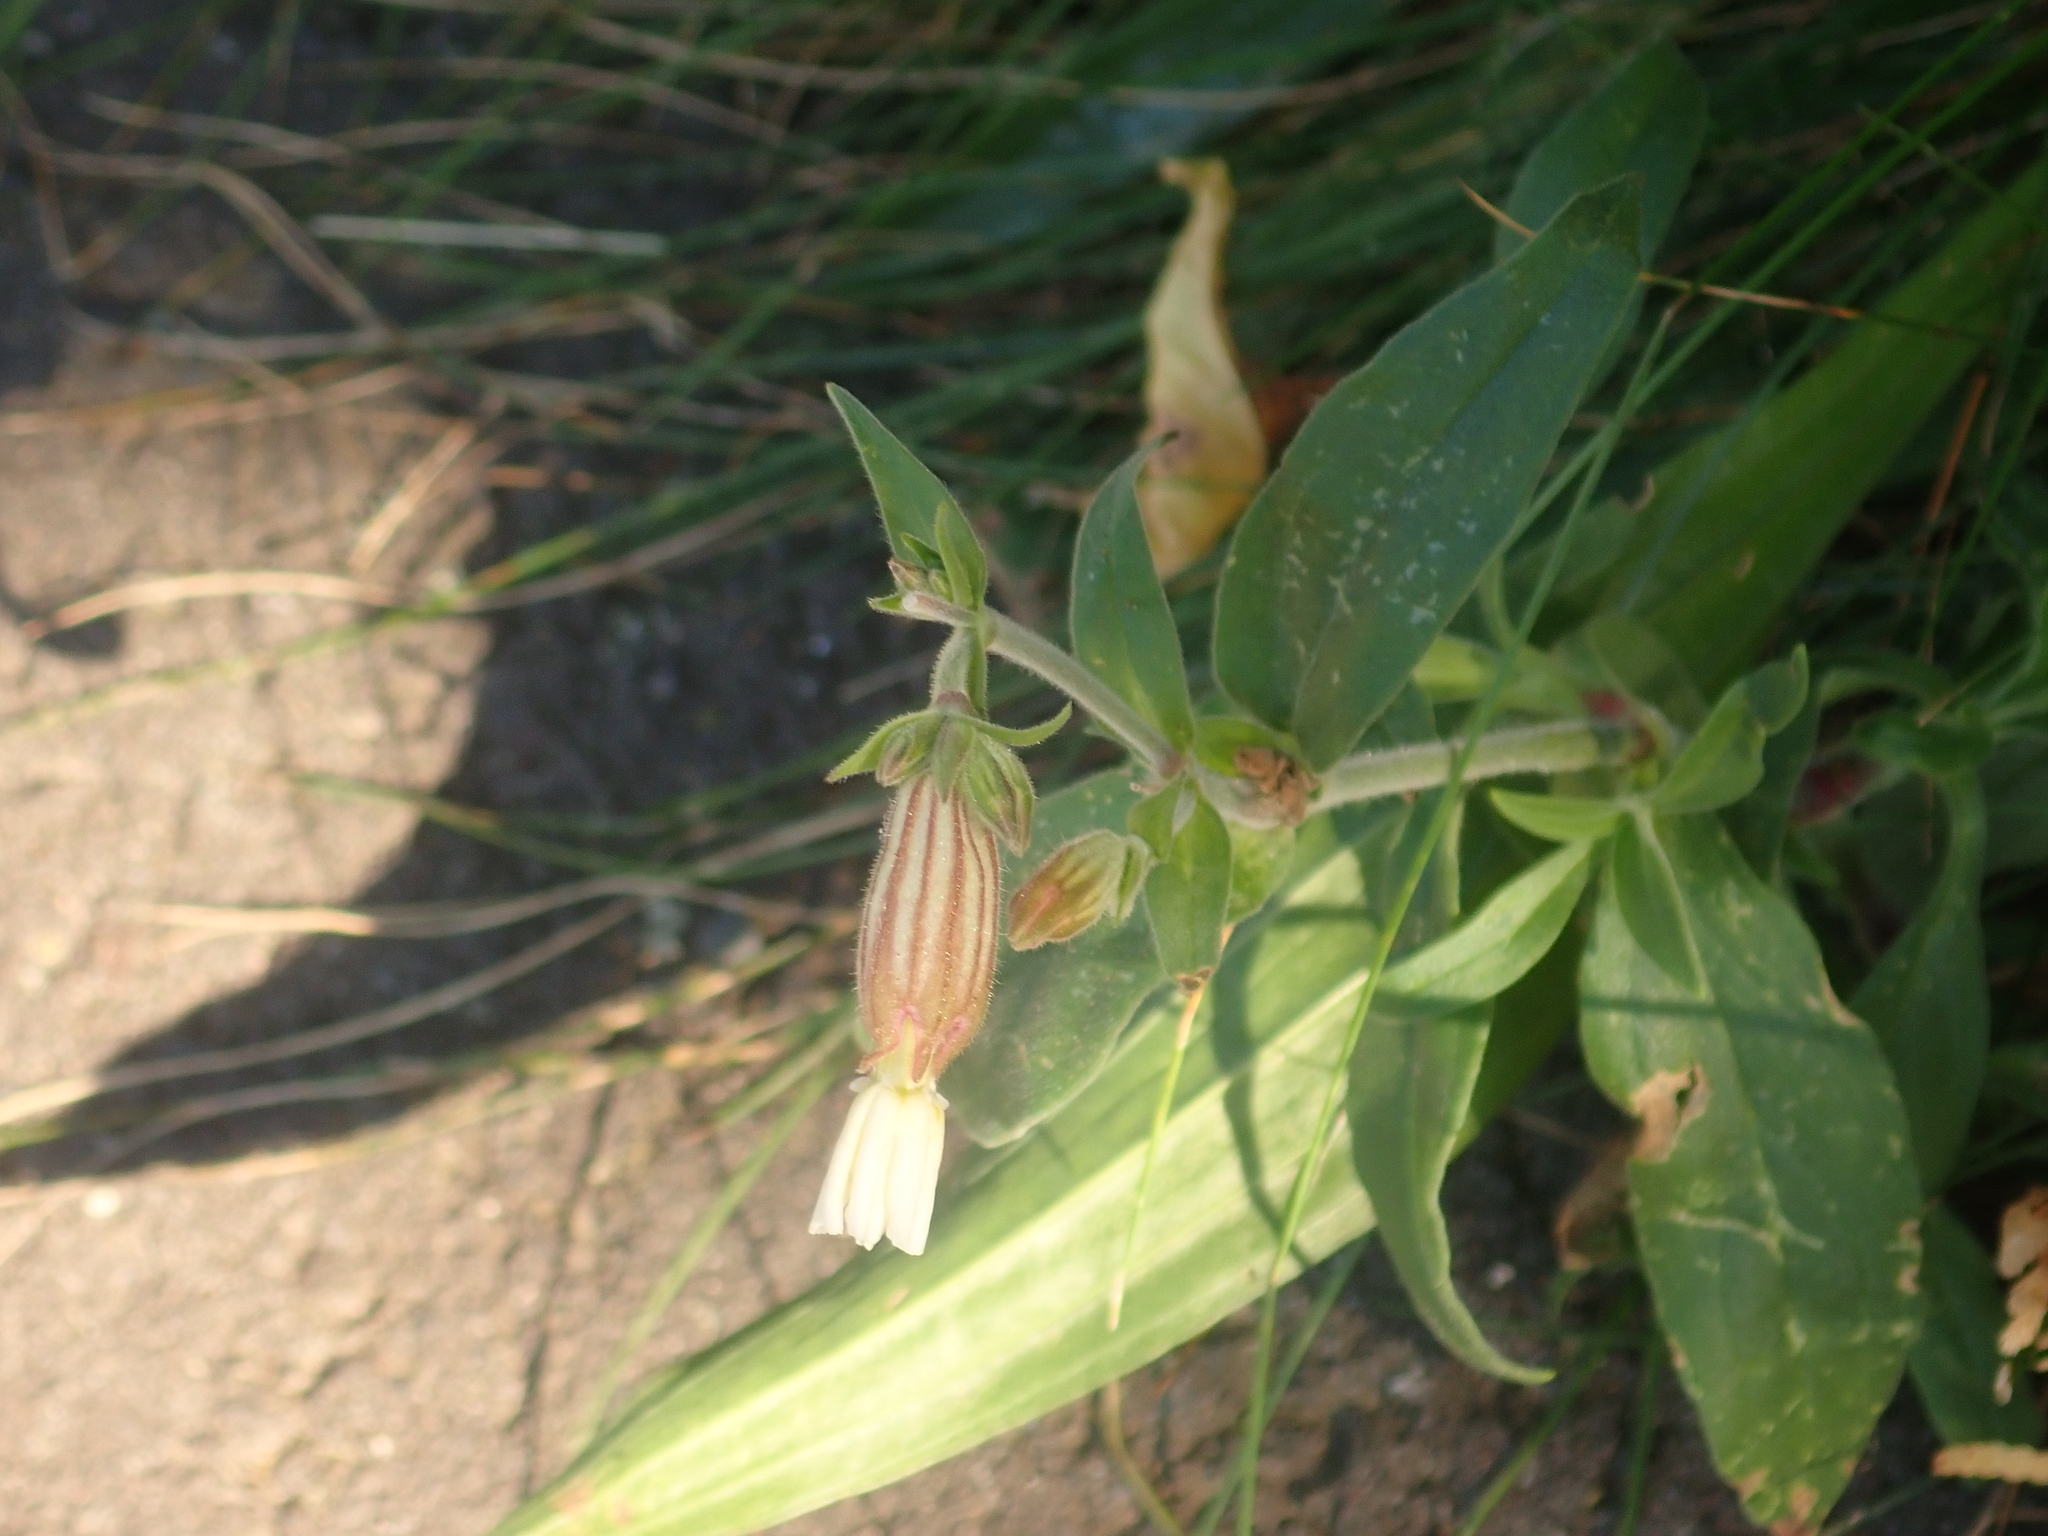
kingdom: Plantae
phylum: Tracheophyta
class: Magnoliopsida
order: Caryophyllales
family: Caryophyllaceae
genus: Silene
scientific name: Silene latifolia
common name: White campion
